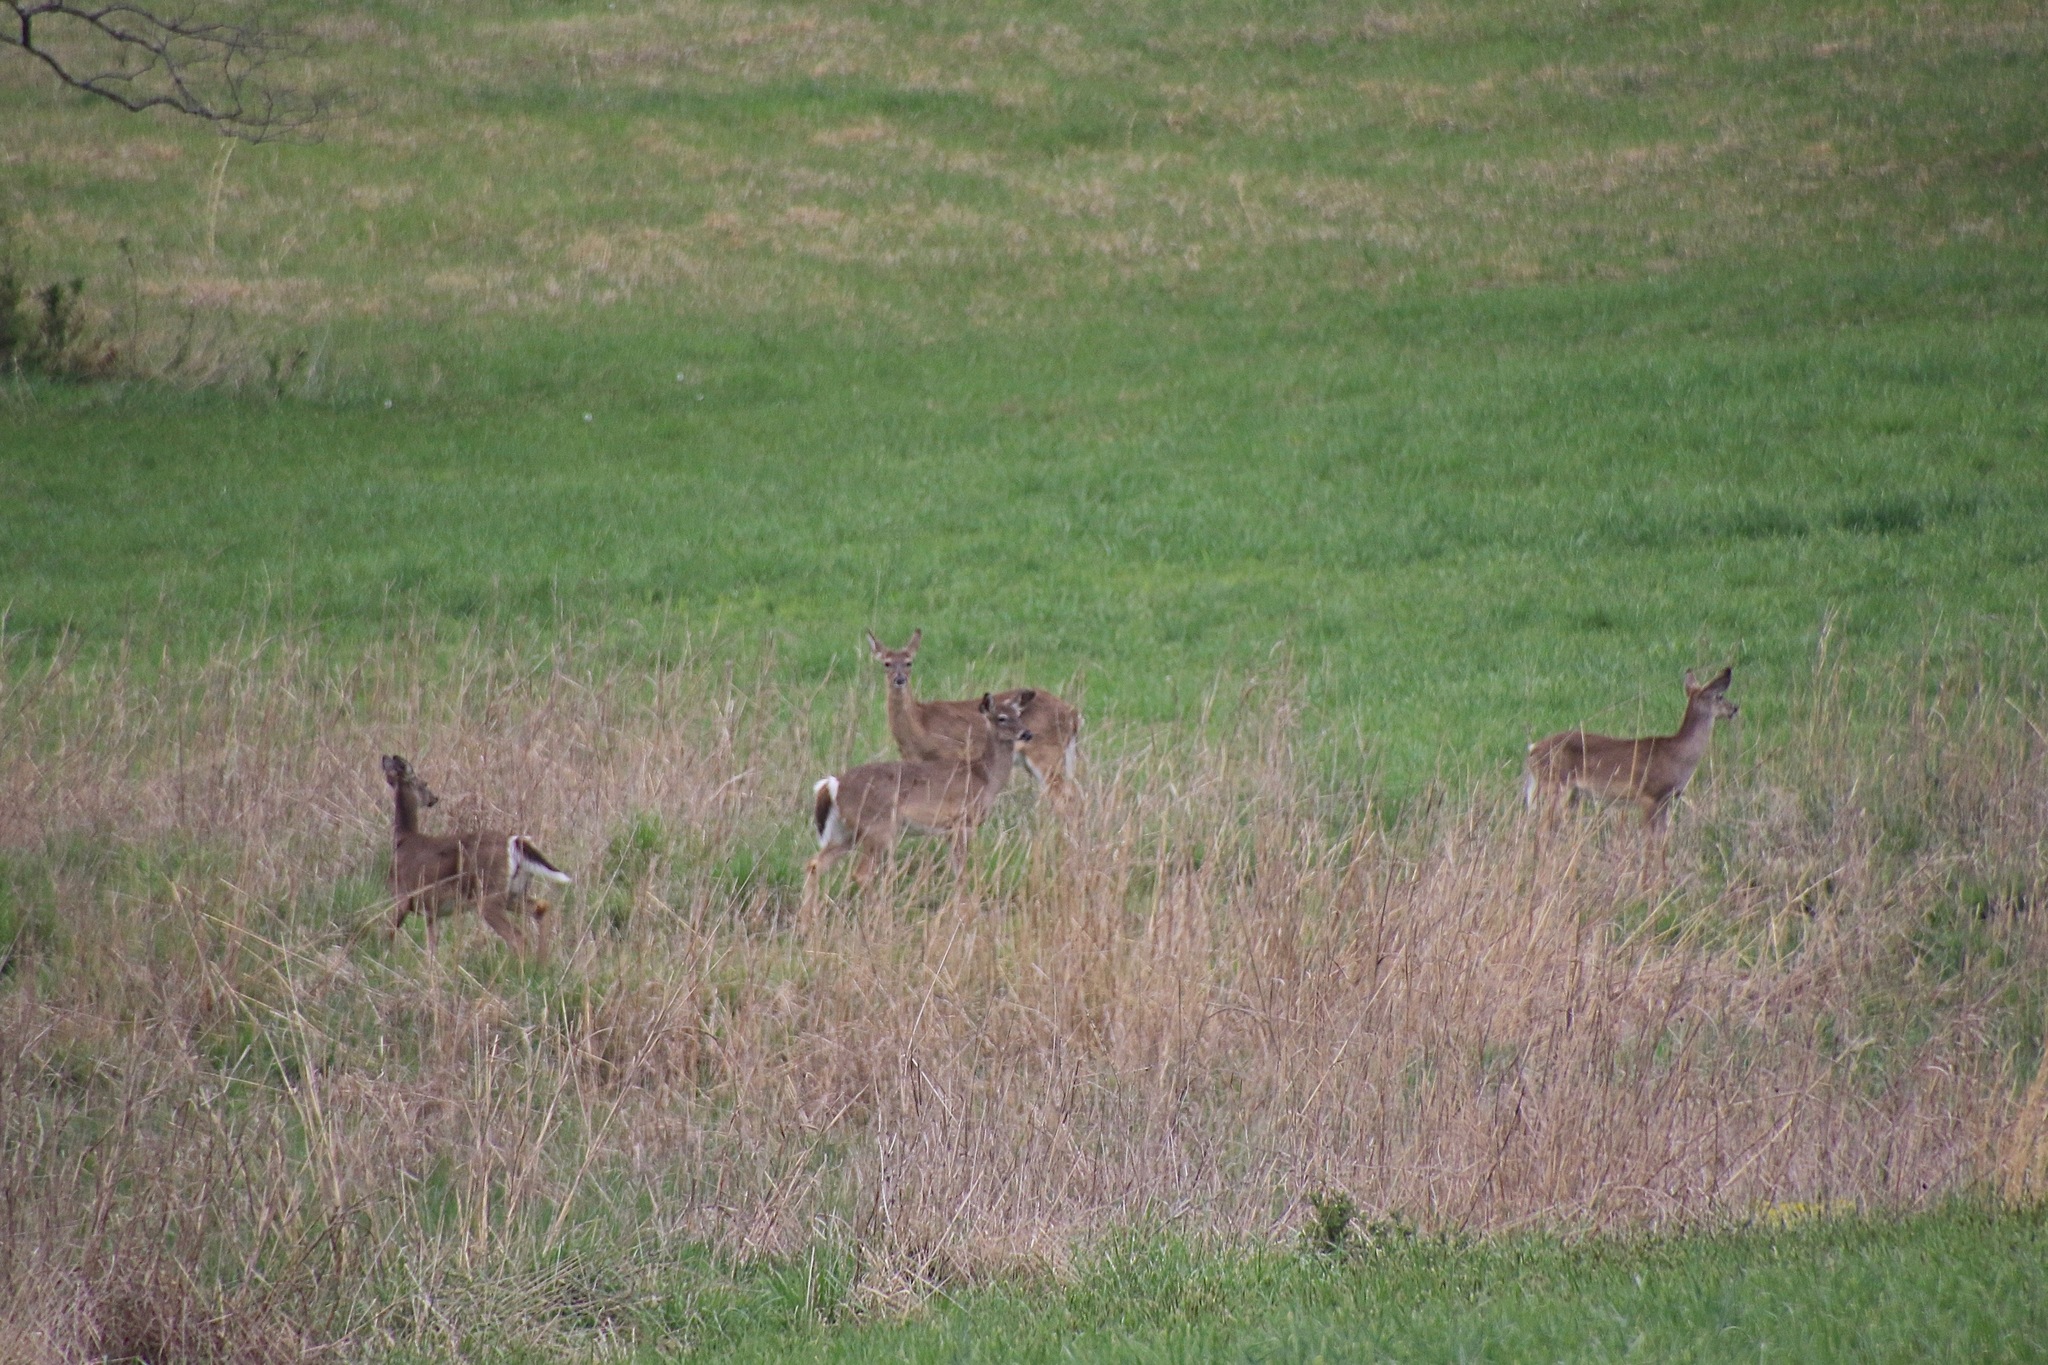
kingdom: Animalia
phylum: Chordata
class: Mammalia
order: Artiodactyla
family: Cervidae
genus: Odocoileus
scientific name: Odocoileus virginianus
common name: White-tailed deer
